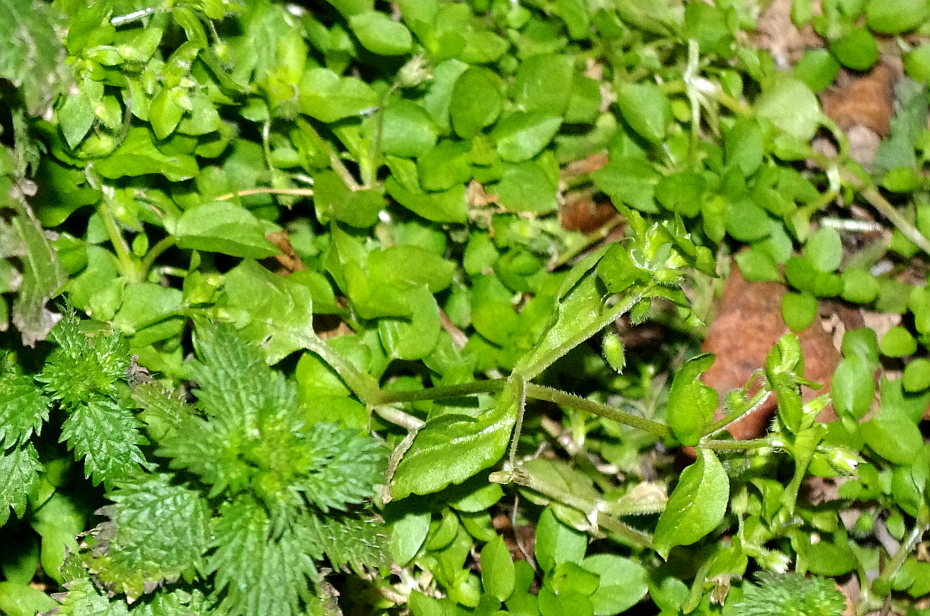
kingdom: Plantae
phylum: Tracheophyta
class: Magnoliopsida
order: Caryophyllales
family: Caryophyllaceae
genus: Stellaria
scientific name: Stellaria media
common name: Common chickweed
